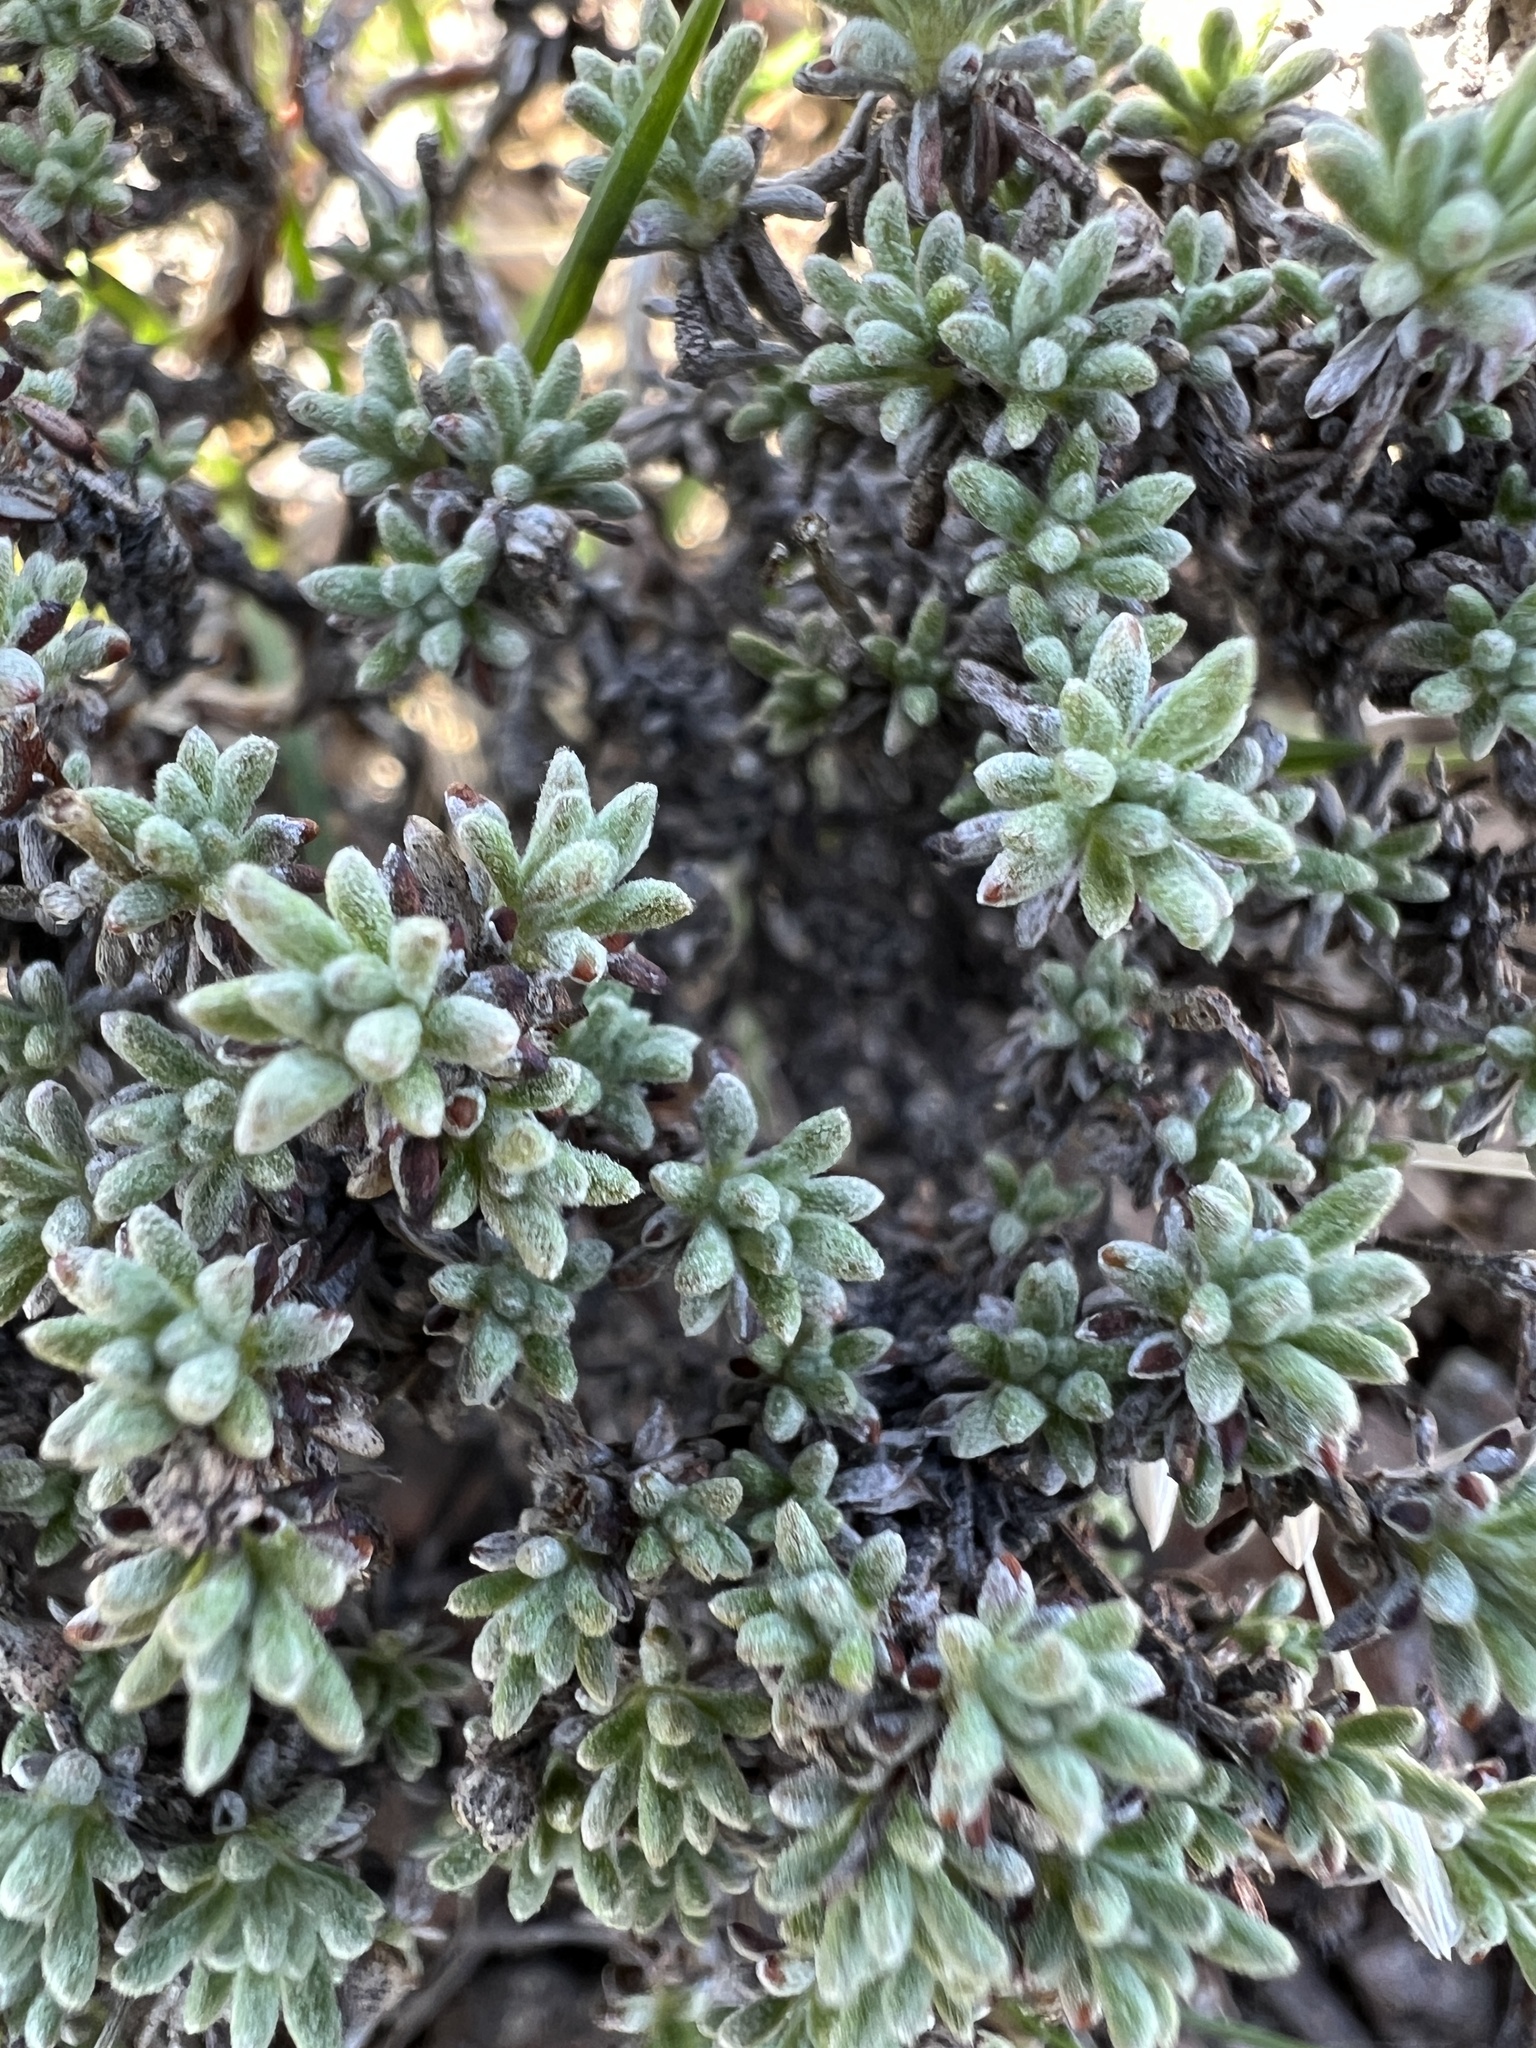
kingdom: Plantae
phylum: Tracheophyta
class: Magnoliopsida
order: Caryophyllales
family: Polygonaceae
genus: Eriogonum
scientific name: Eriogonum thymoides
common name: Thyme-leaf wild buckwheat
